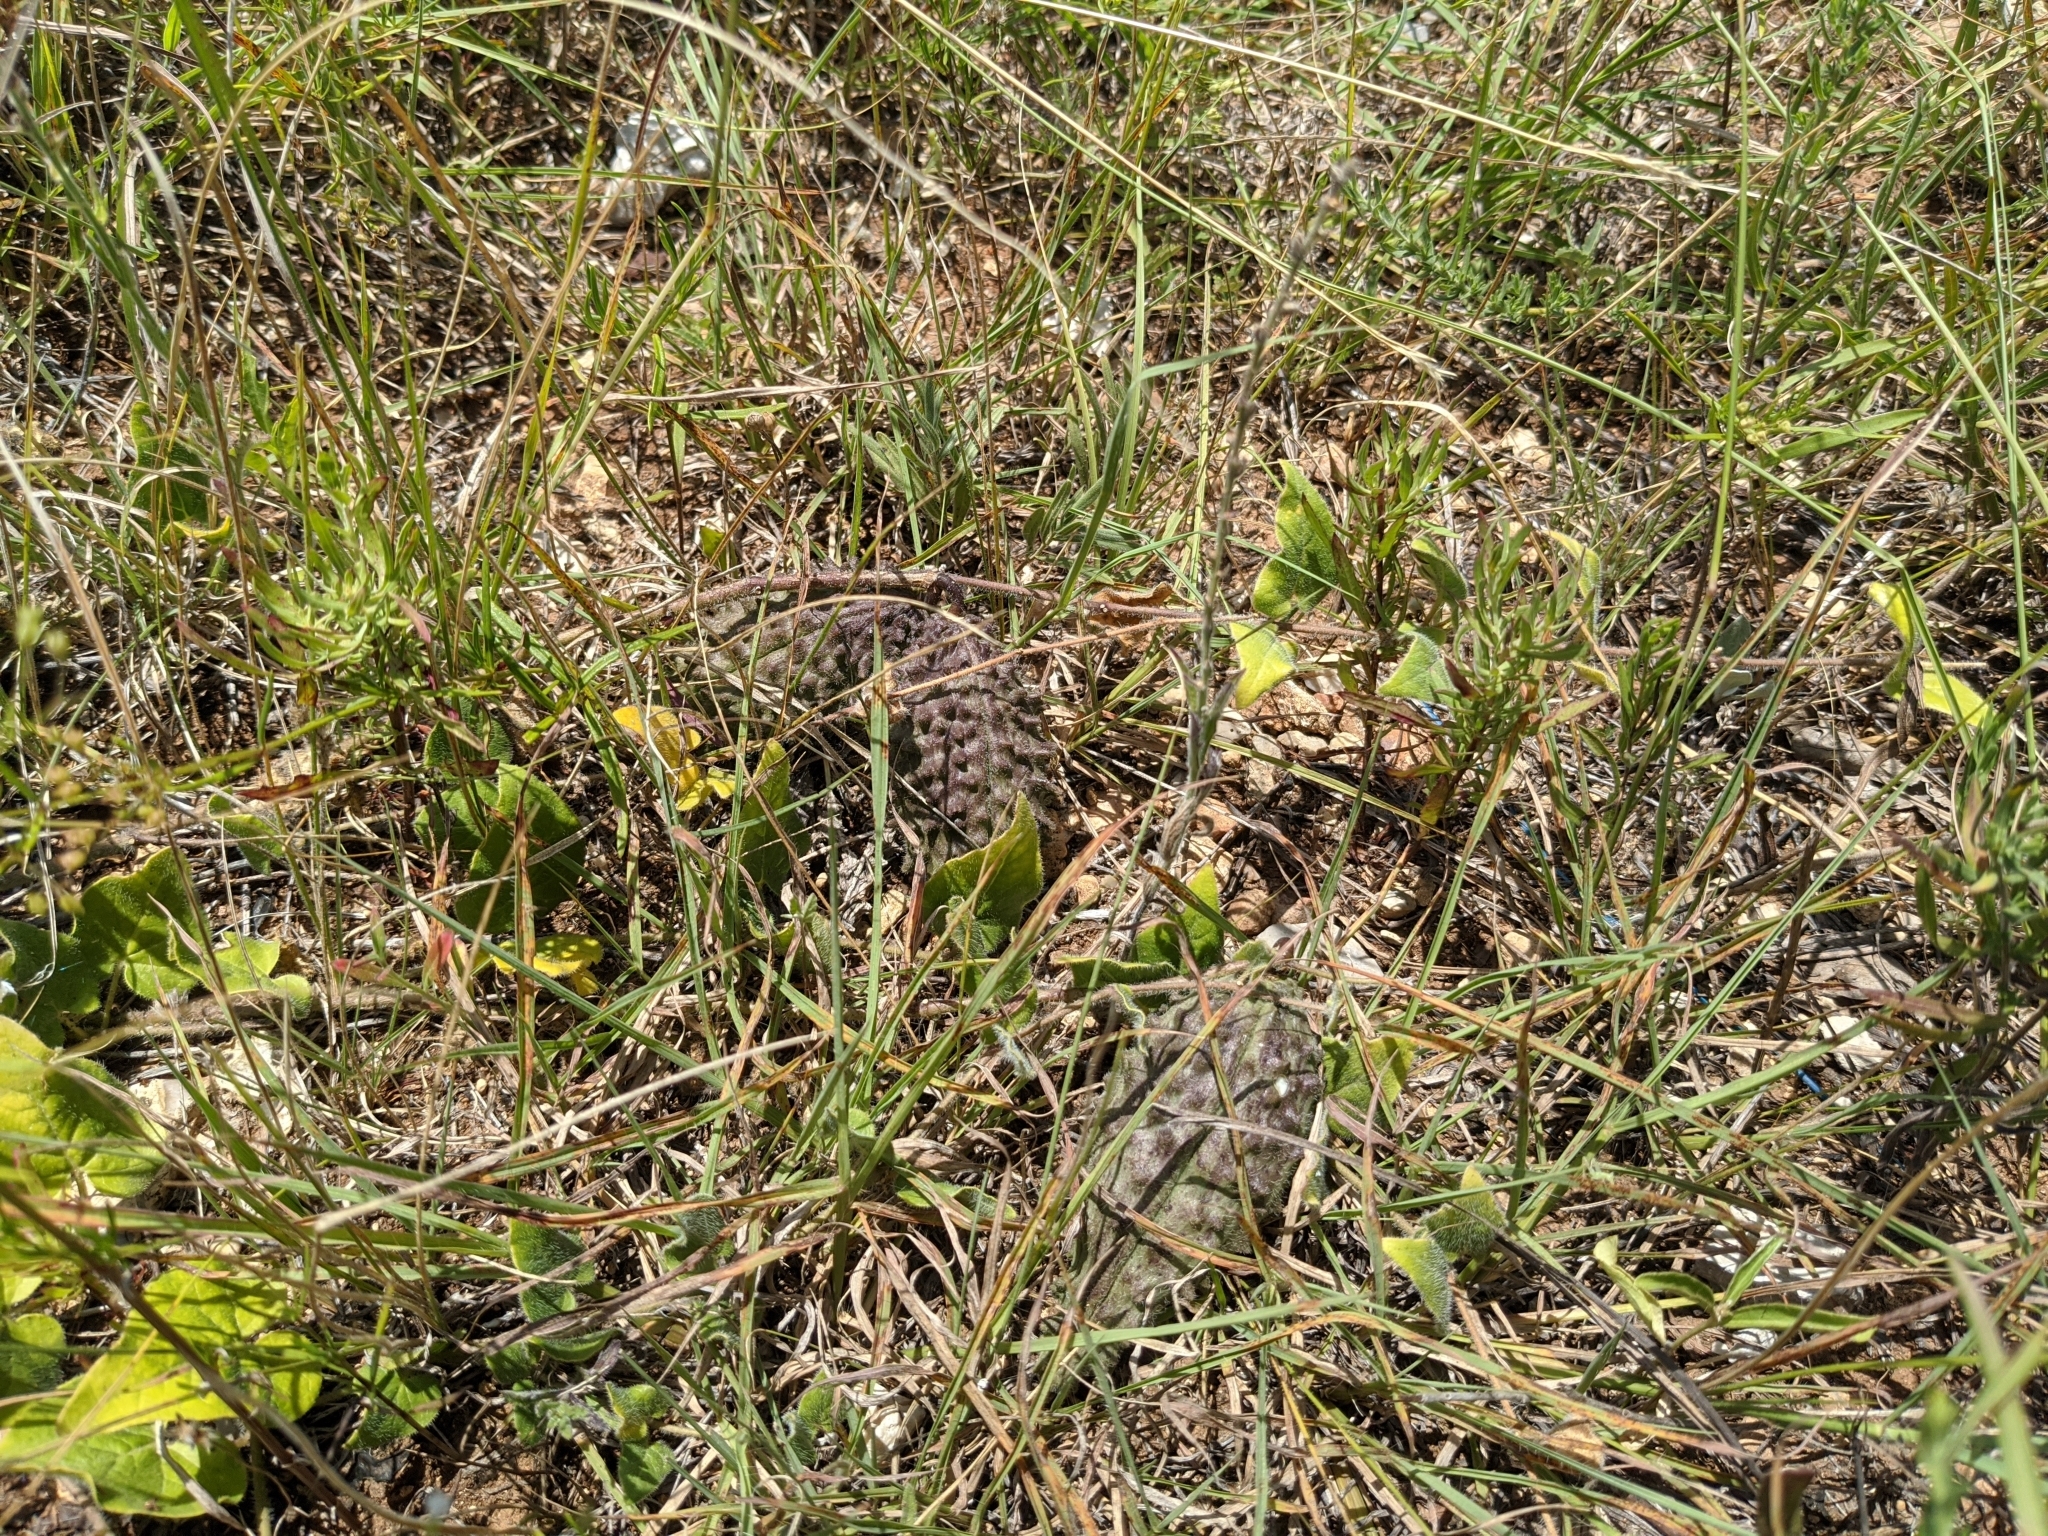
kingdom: Plantae
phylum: Tracheophyta
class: Magnoliopsida
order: Gentianales
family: Apocynaceae
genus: Chthamalia
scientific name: Chthamalia biflora
